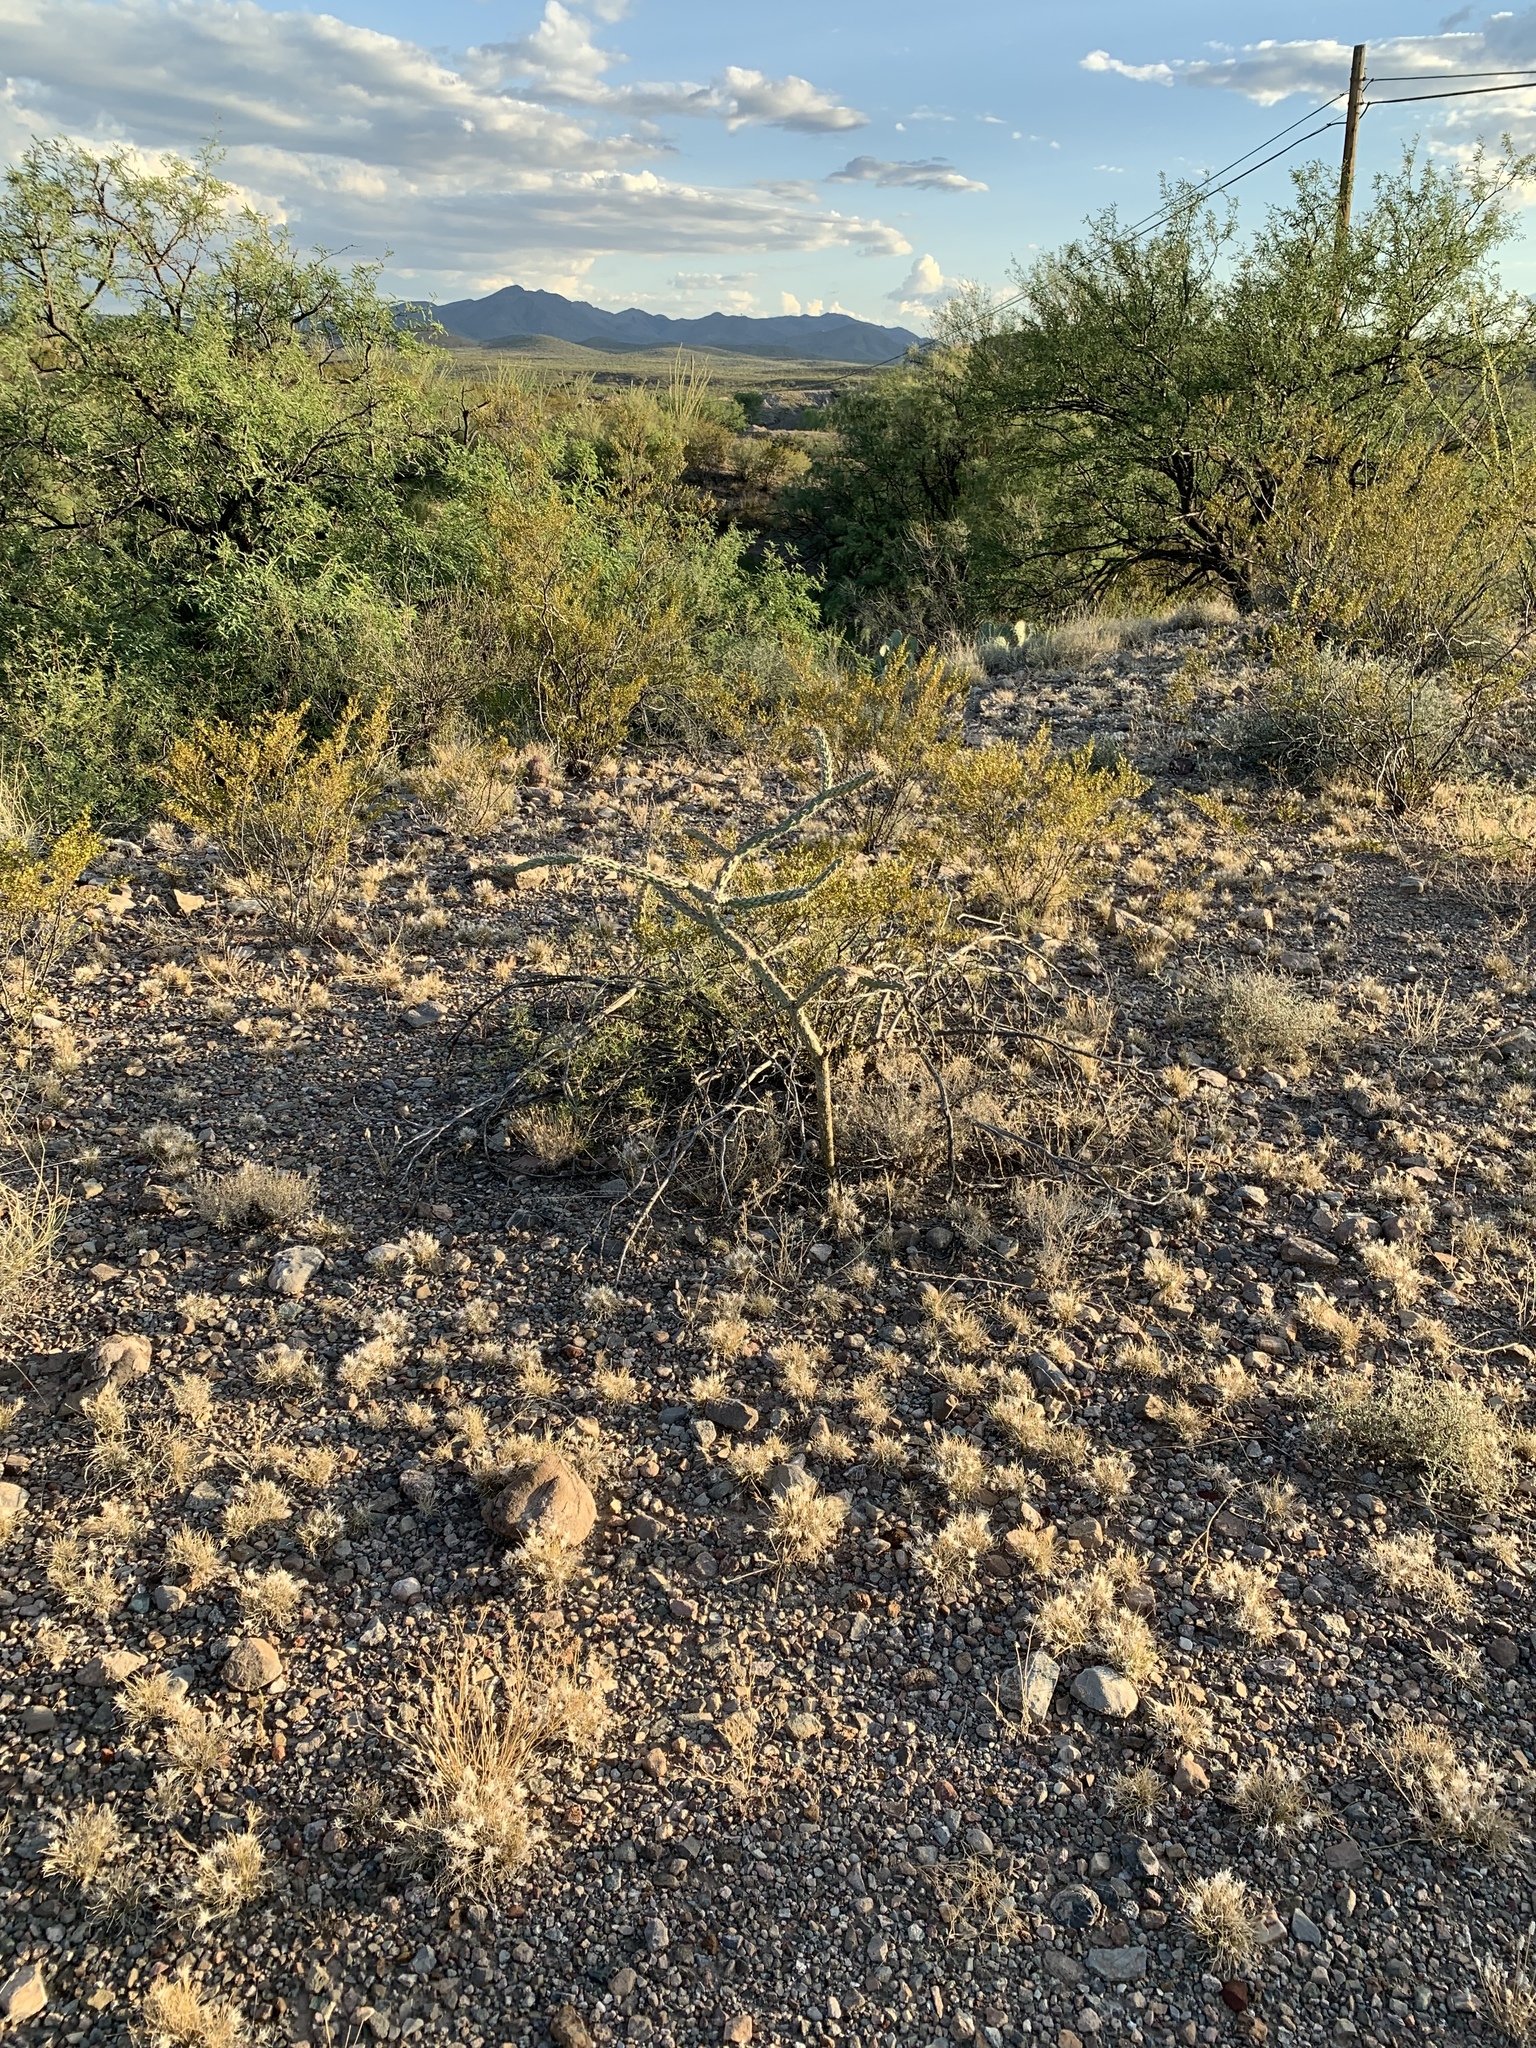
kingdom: Plantae
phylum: Tracheophyta
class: Magnoliopsida
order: Caryophyllales
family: Cactaceae
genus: Cylindropuntia
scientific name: Cylindropuntia thurberi
